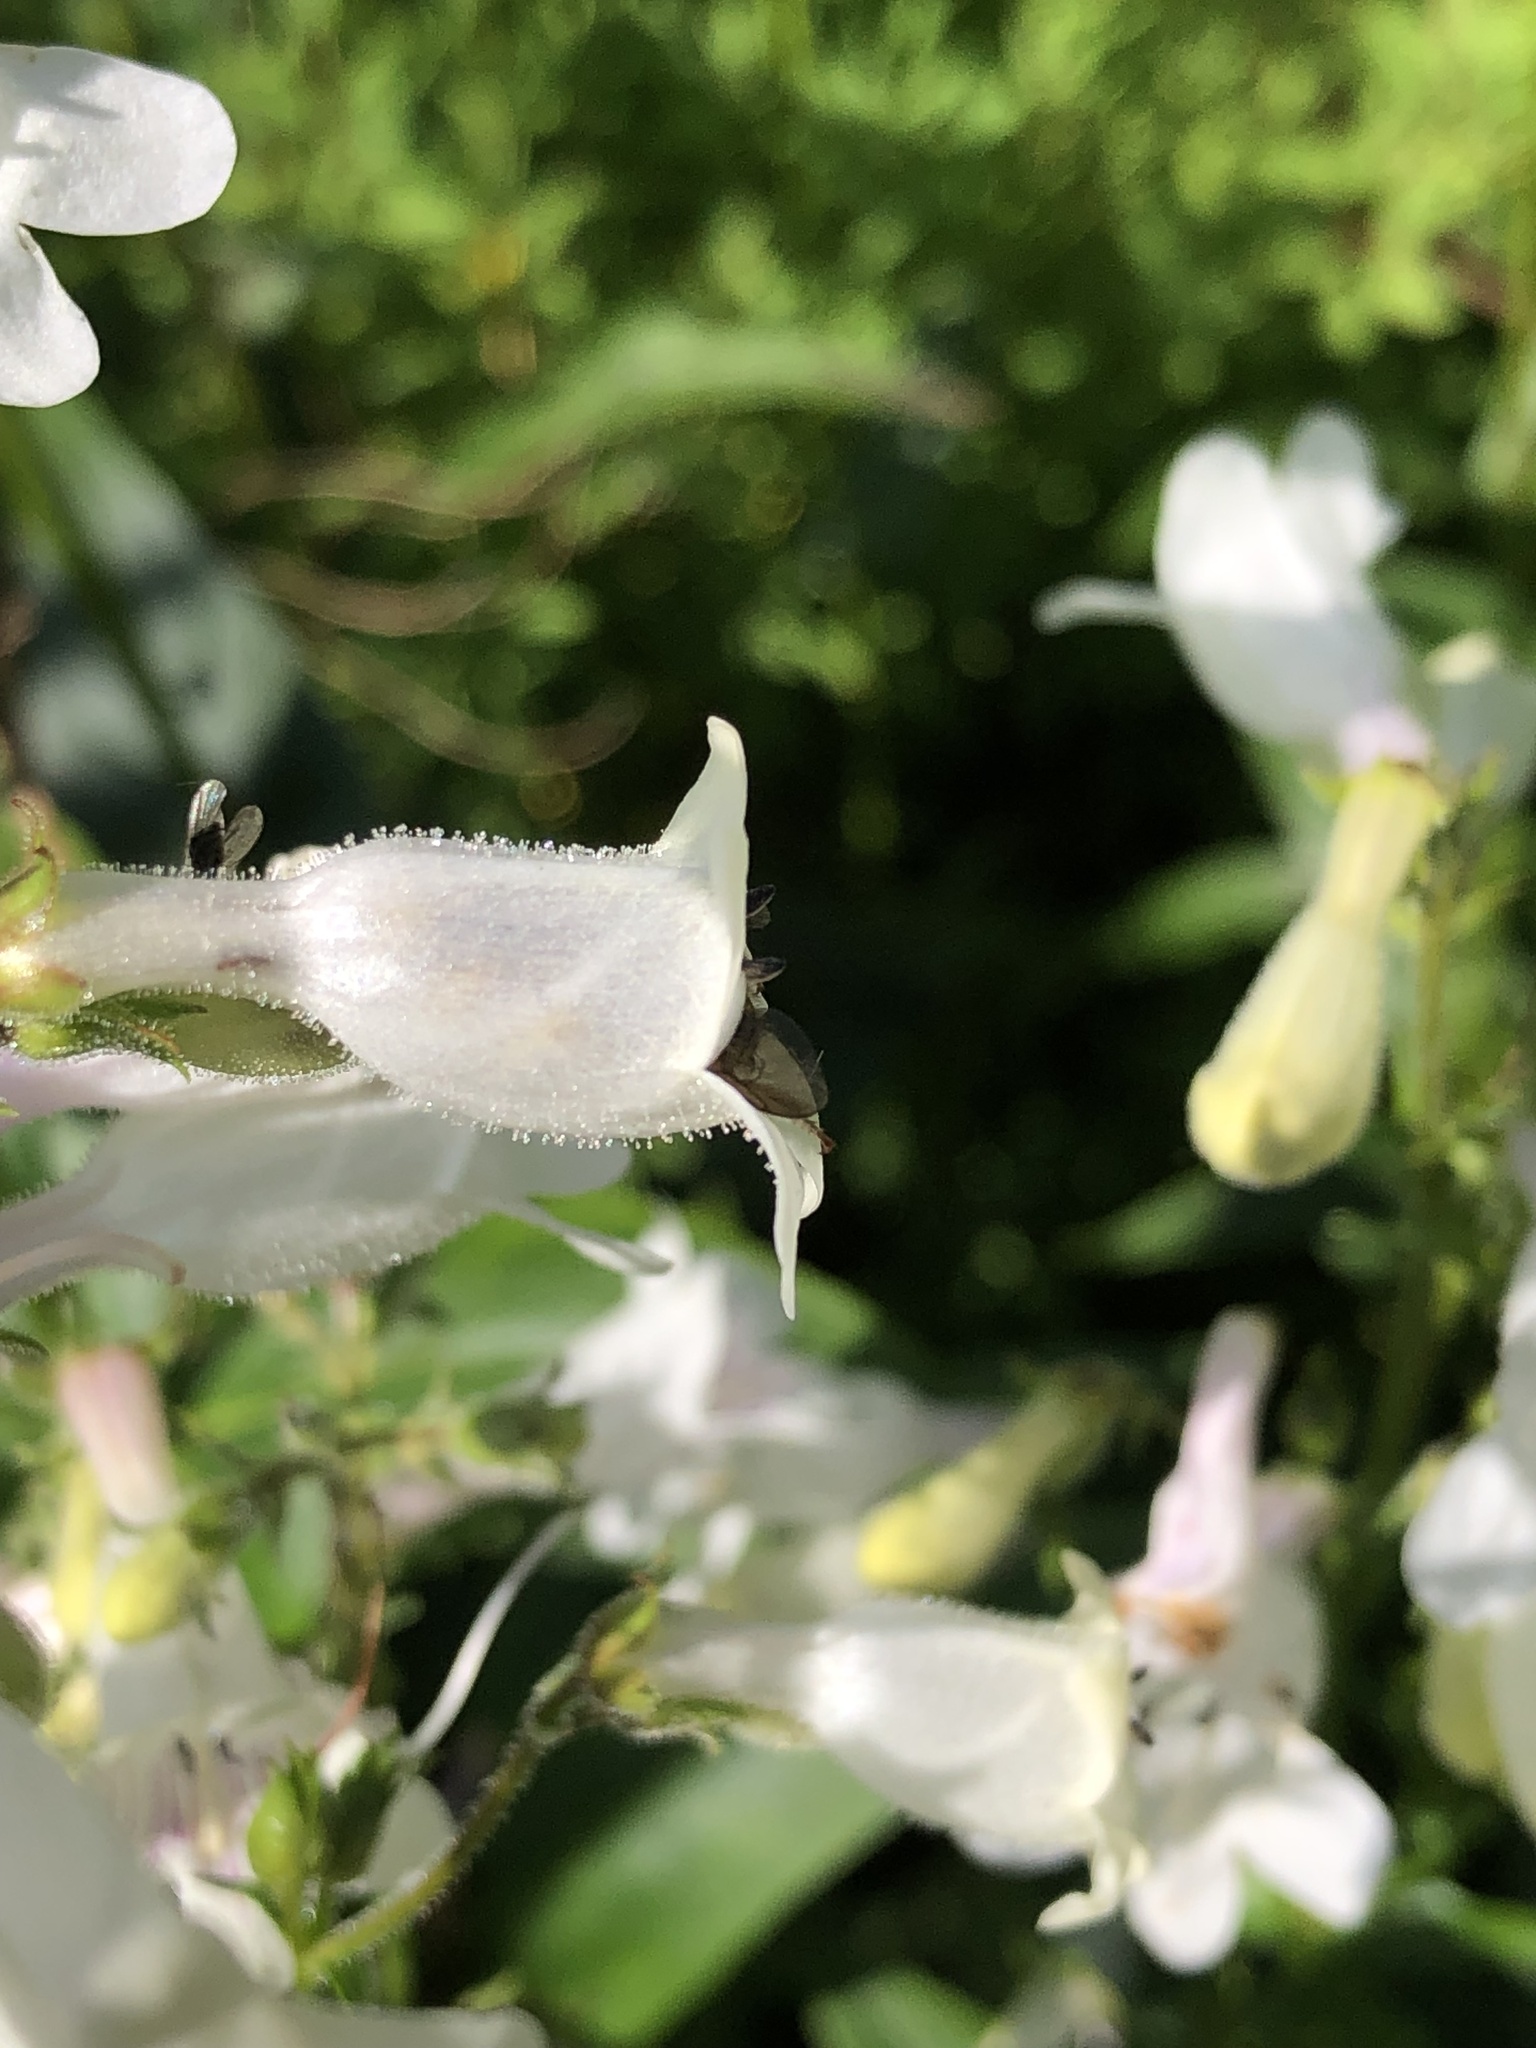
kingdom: Animalia
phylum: Arthropoda
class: Insecta
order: Hymenoptera
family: Megachilidae
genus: Anthidium
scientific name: Anthidium manicatum
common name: Wool carder bee
